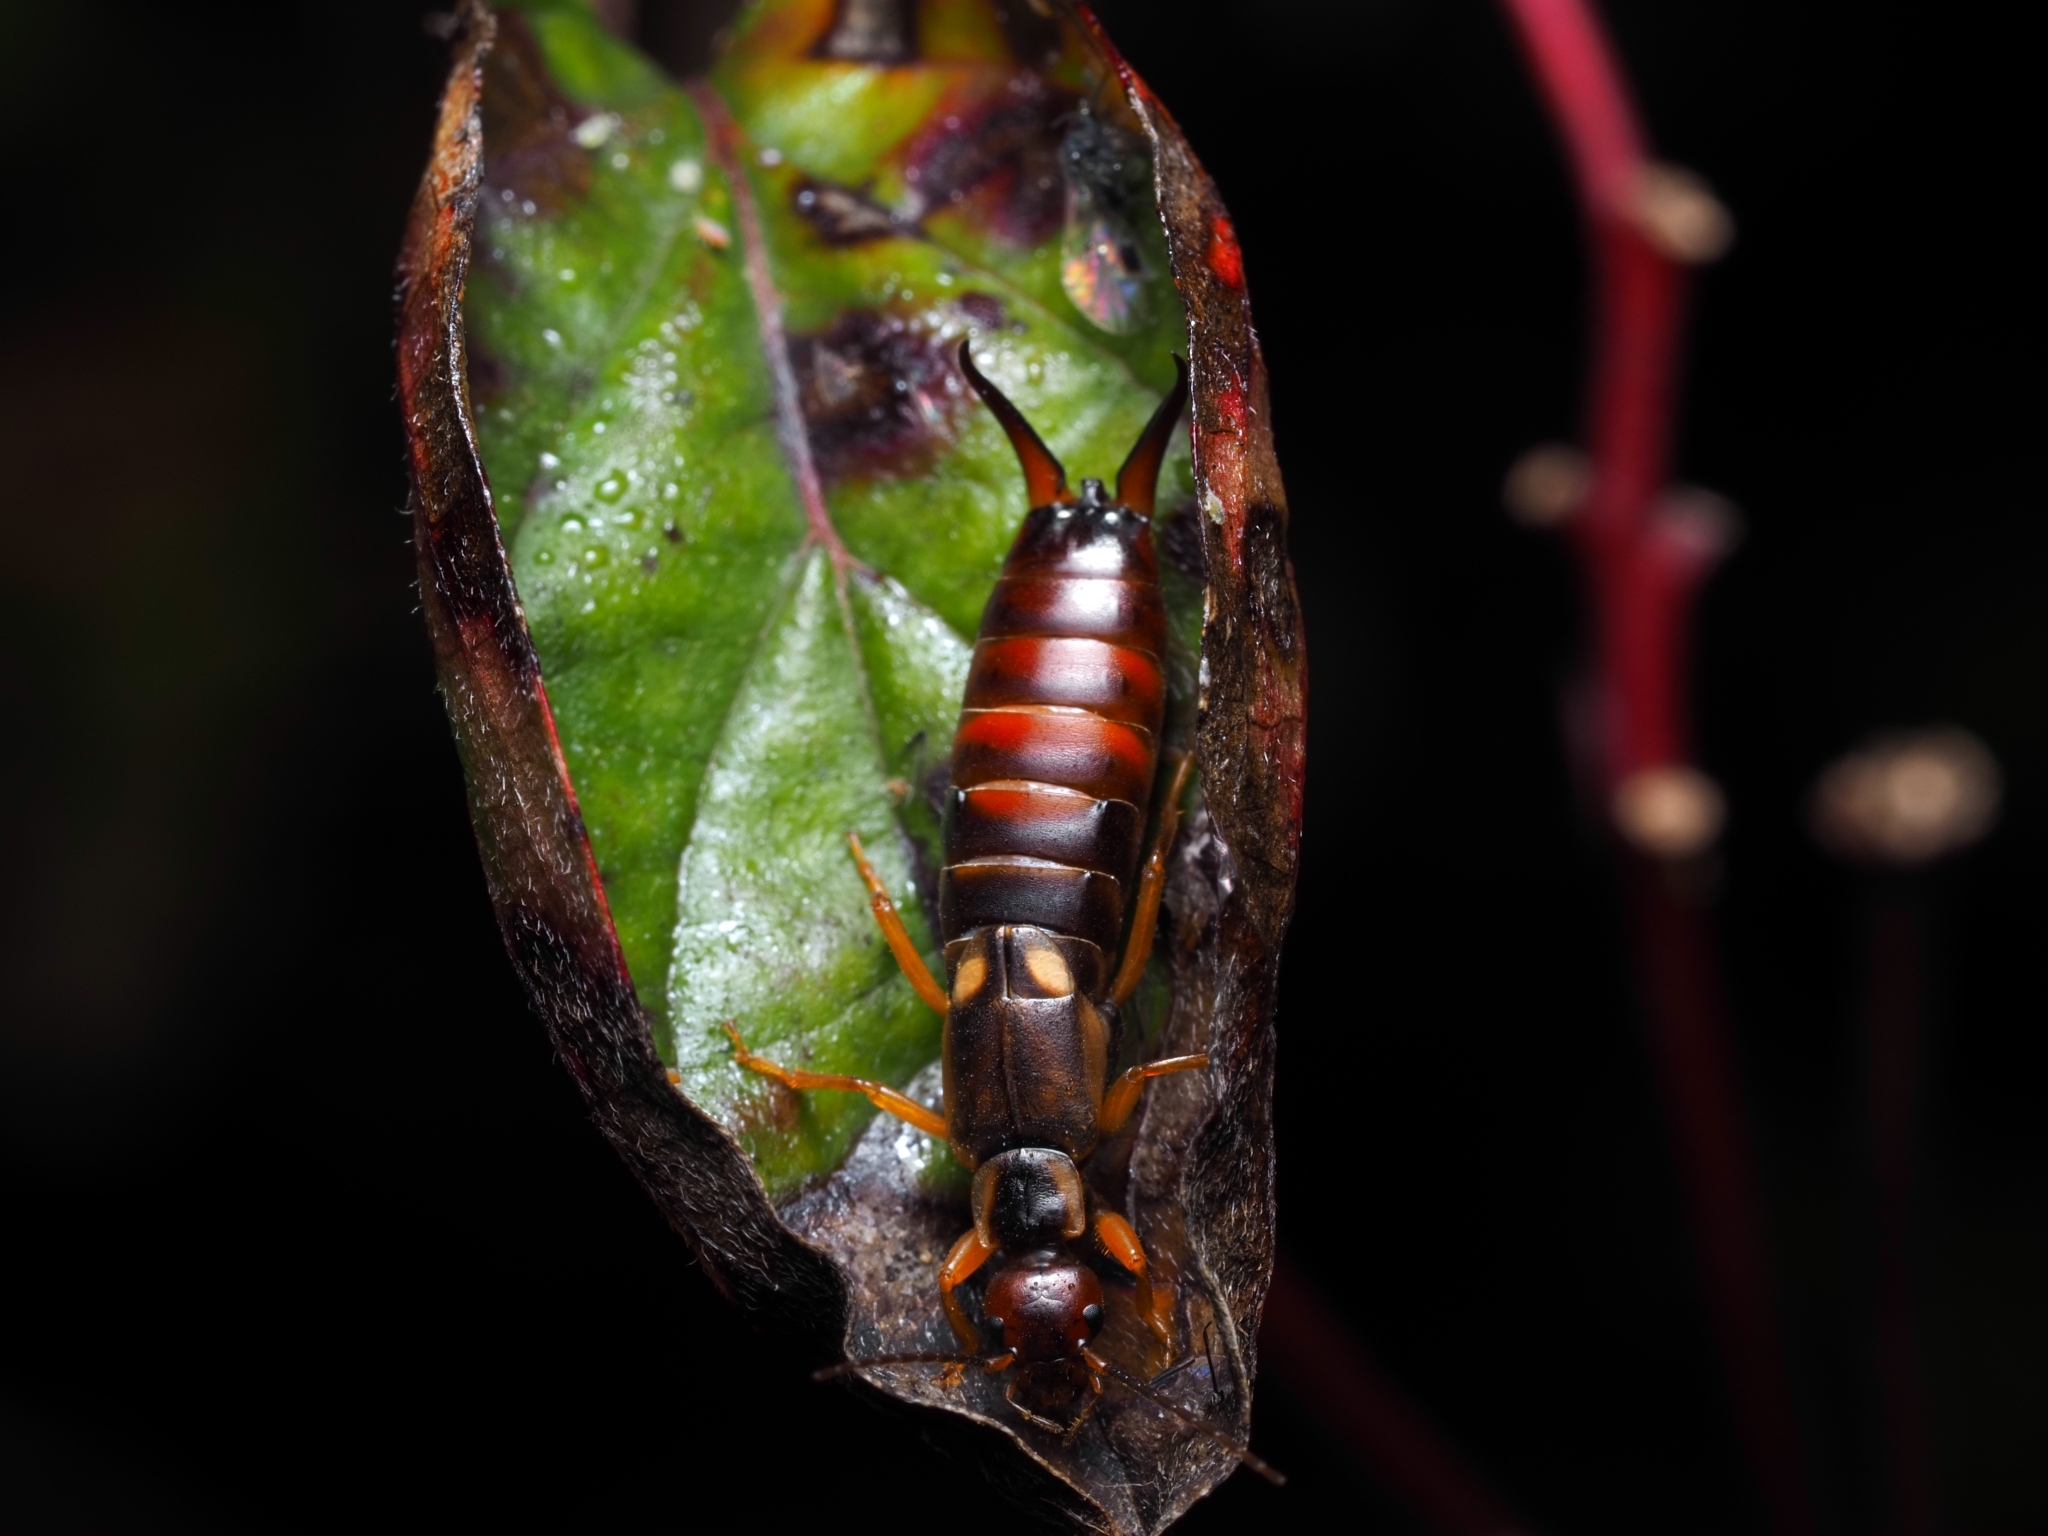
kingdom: Animalia
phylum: Arthropoda
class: Insecta
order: Dermaptera
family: Forficulidae
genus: Forficula
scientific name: Forficula
